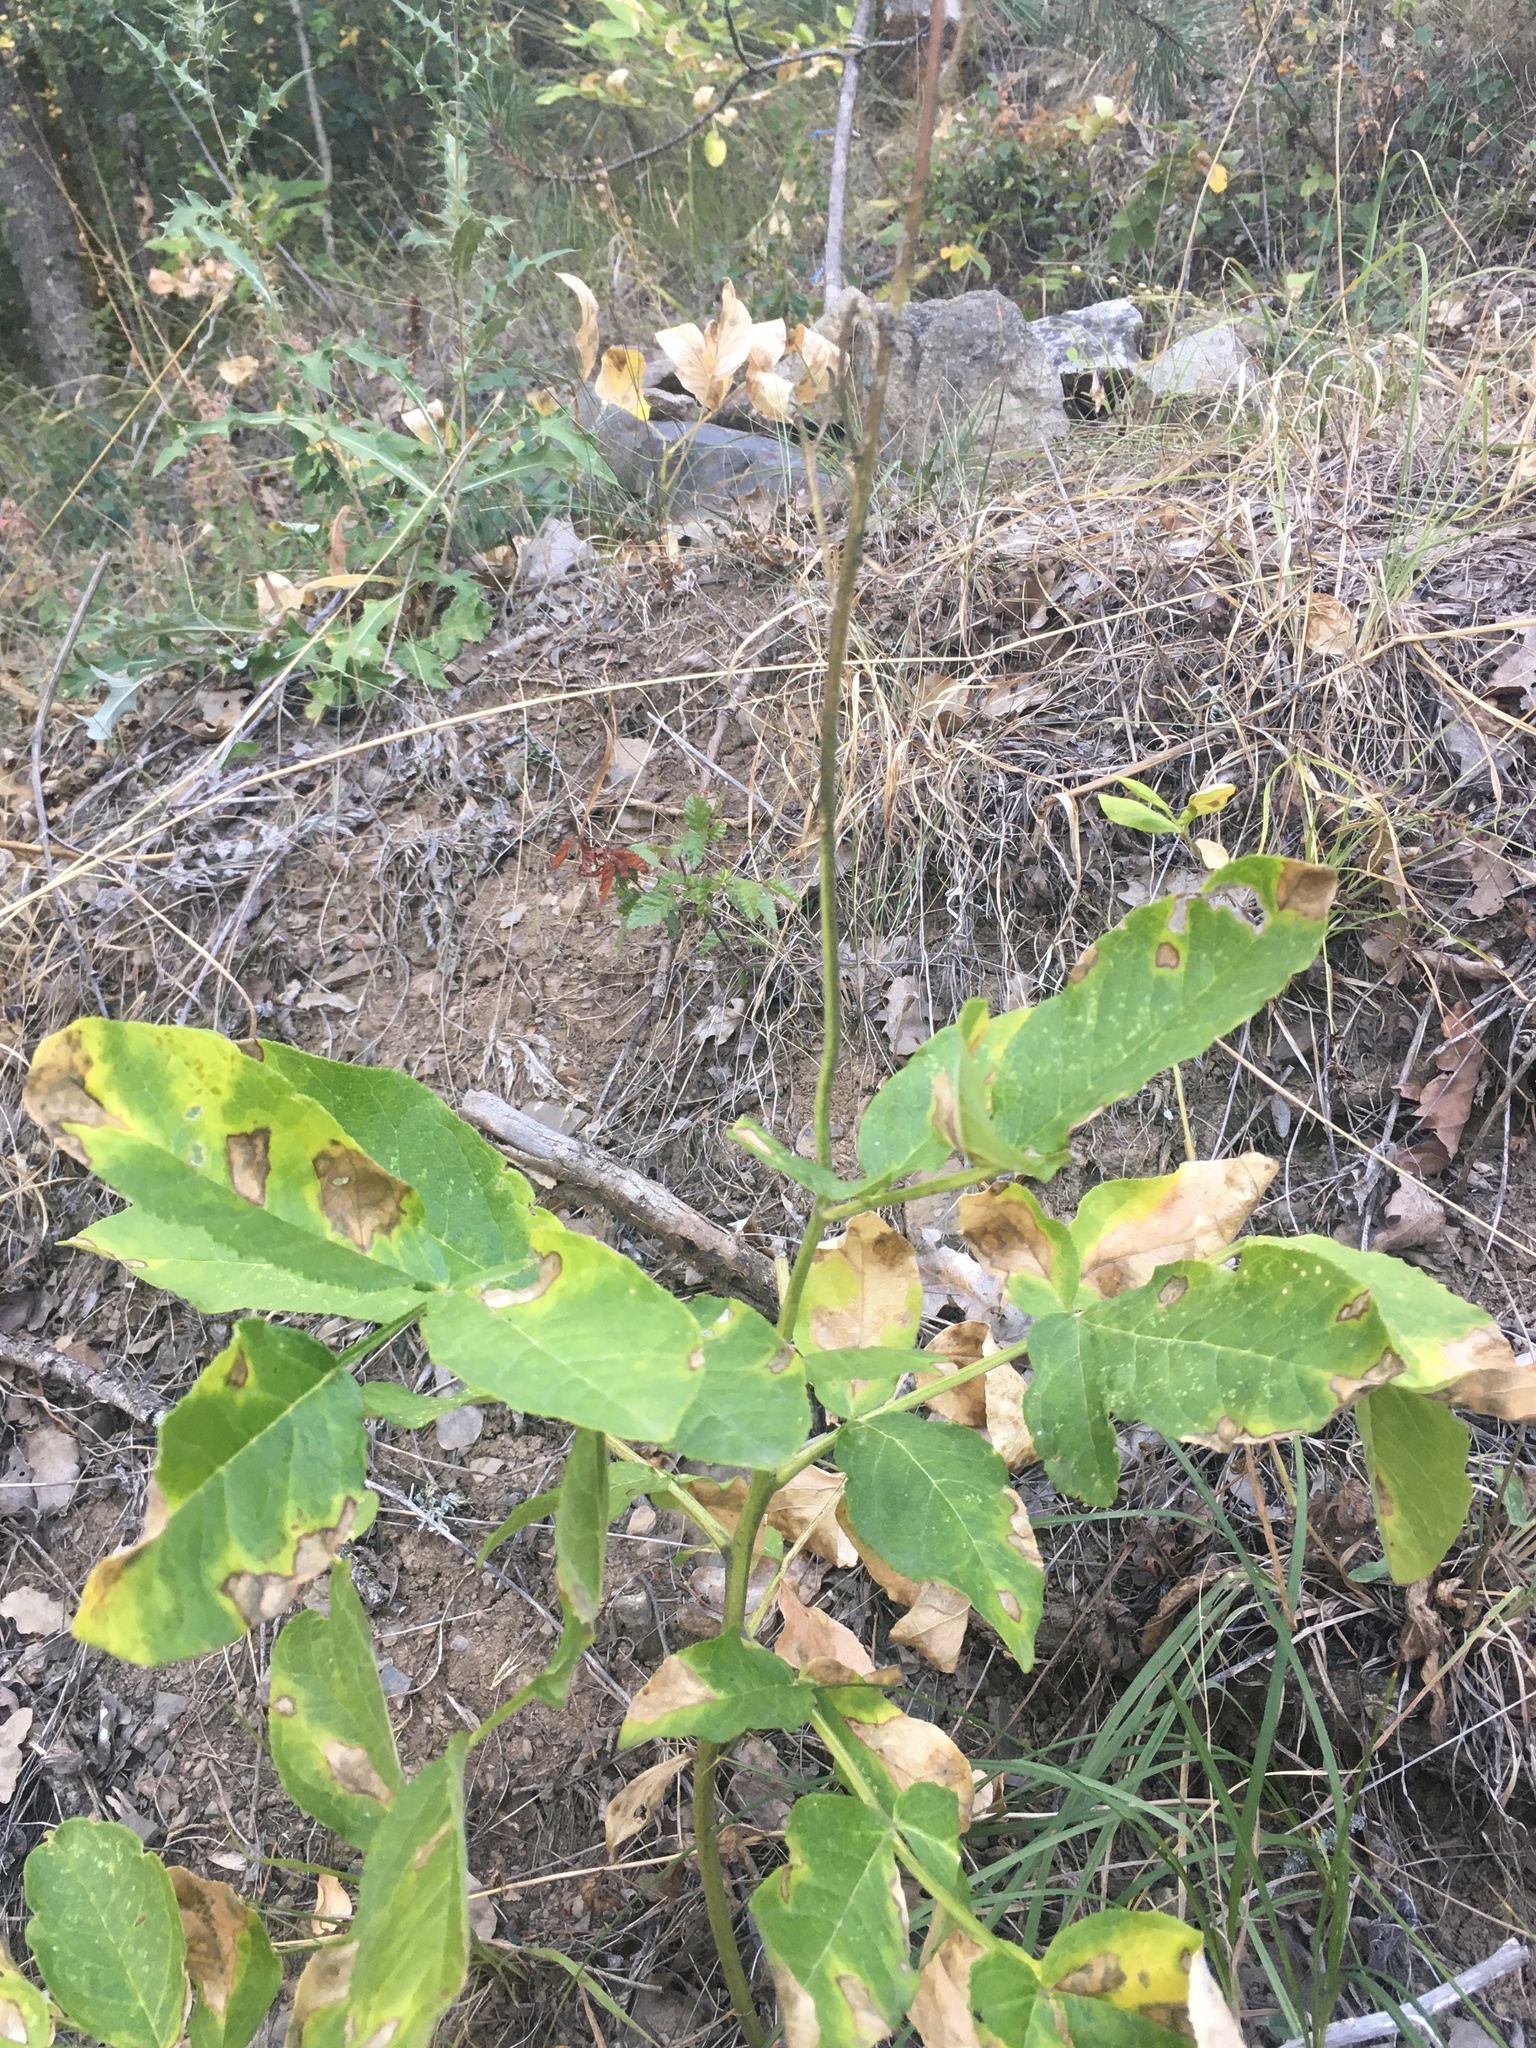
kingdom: Plantae
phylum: Tracheophyta
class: Magnoliopsida
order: Sapindales
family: Rutaceae
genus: Dictamnus
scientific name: Dictamnus albus
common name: Gasplant
